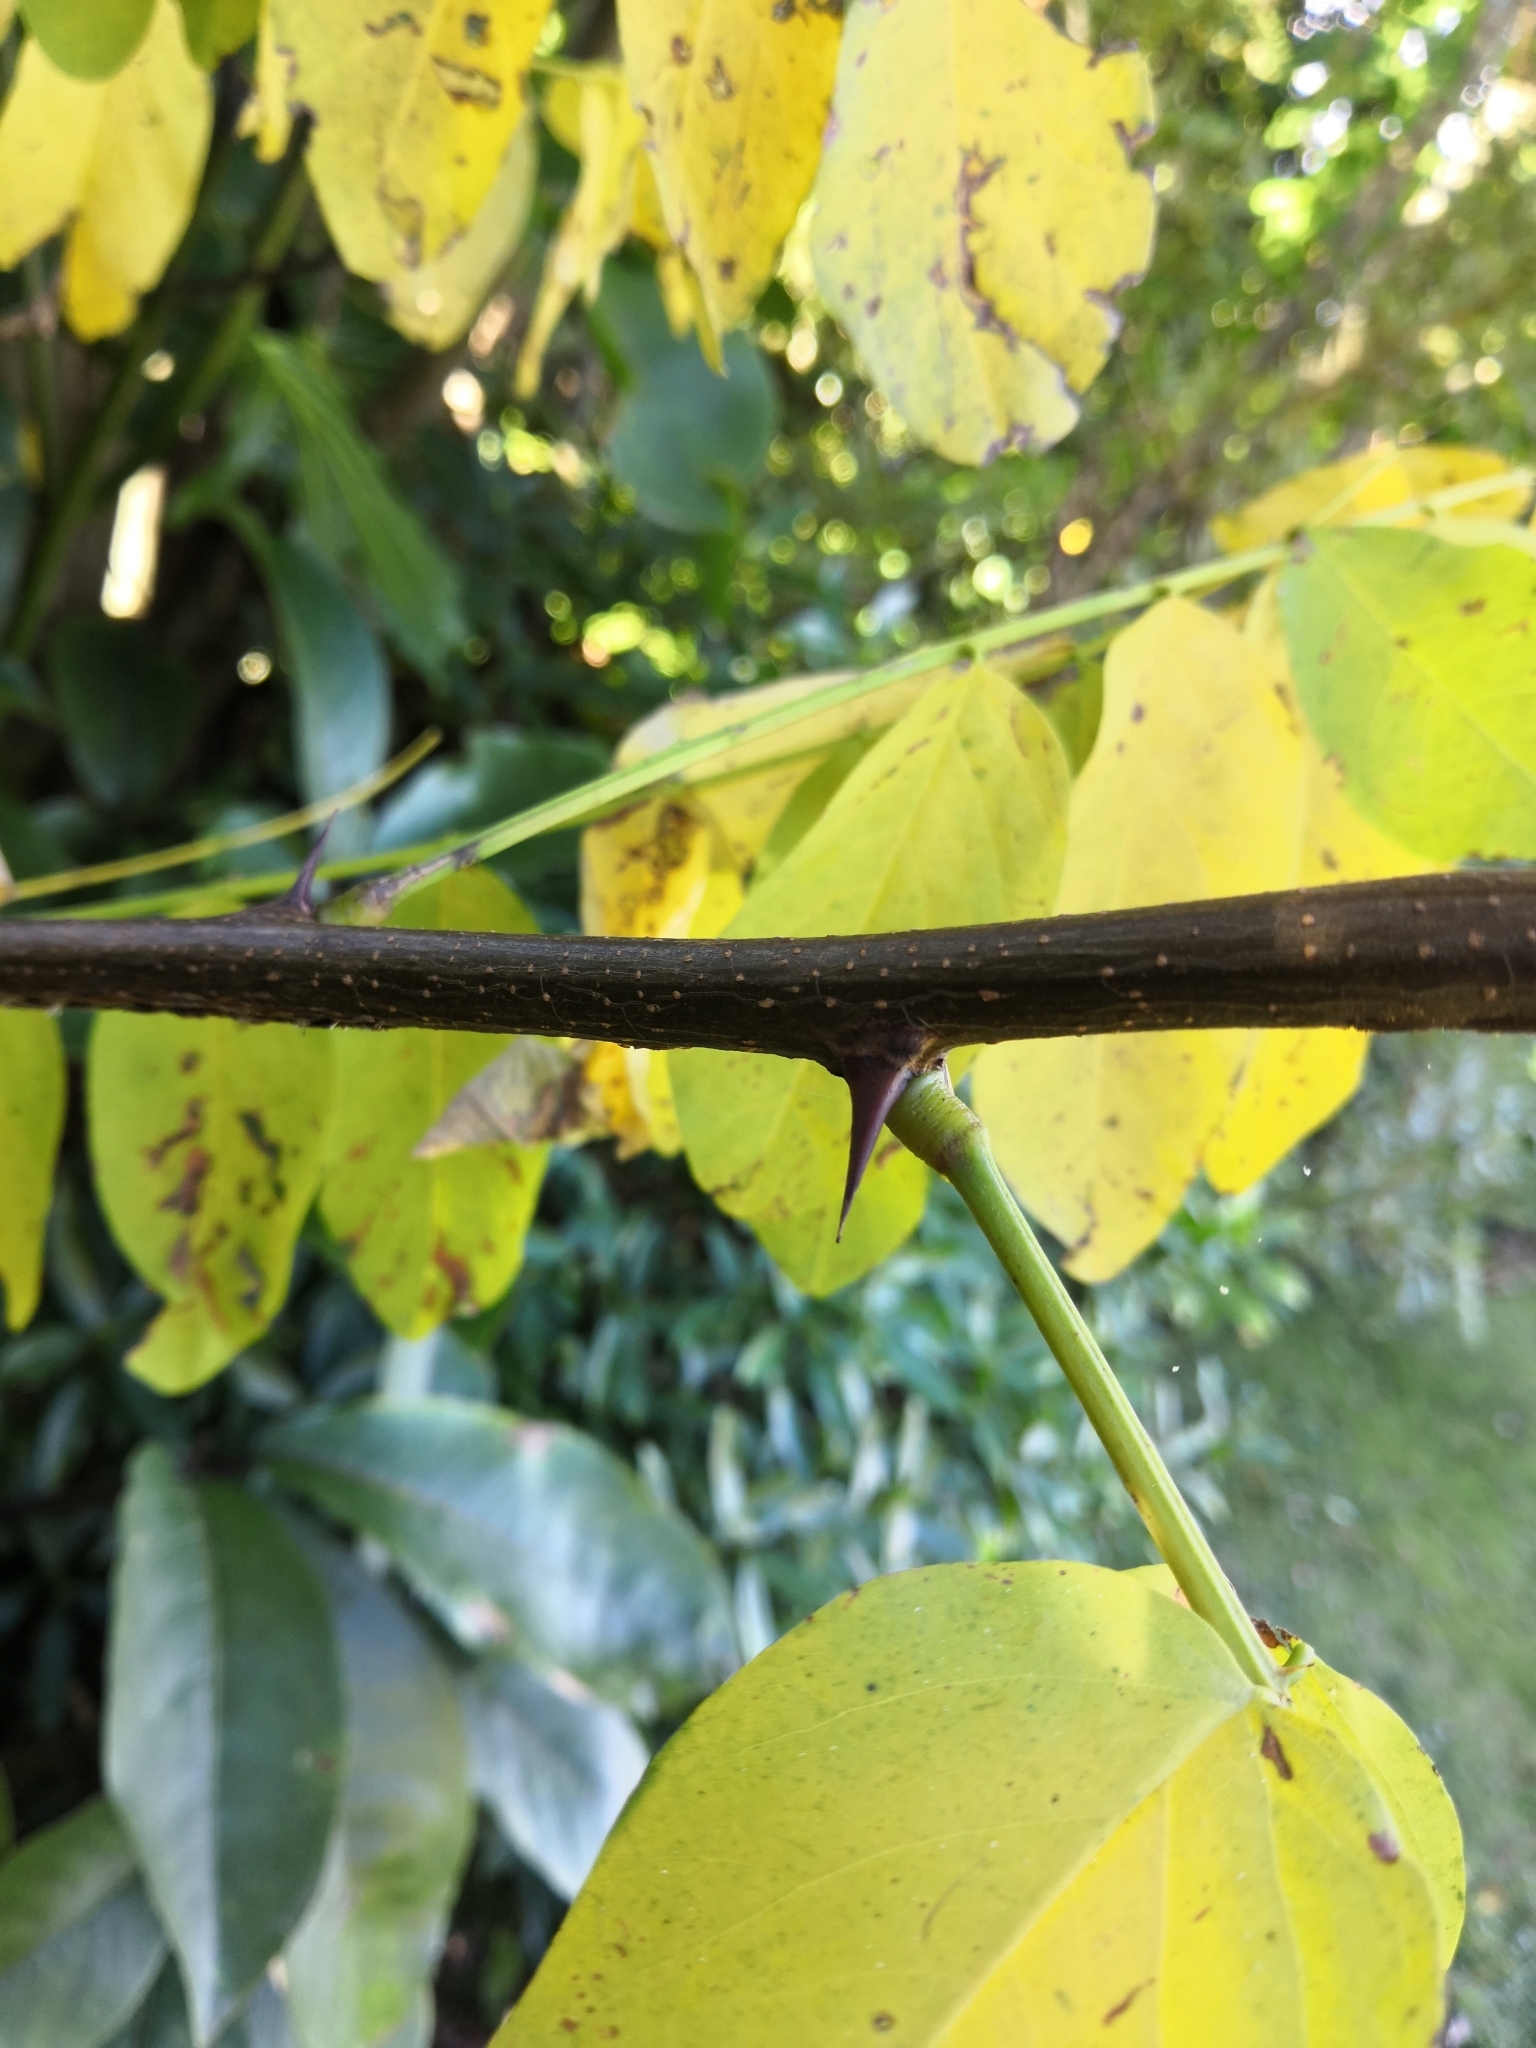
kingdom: Plantae
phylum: Tracheophyta
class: Magnoliopsida
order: Fabales
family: Fabaceae
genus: Robinia
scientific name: Robinia pseudoacacia
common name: Black locust
